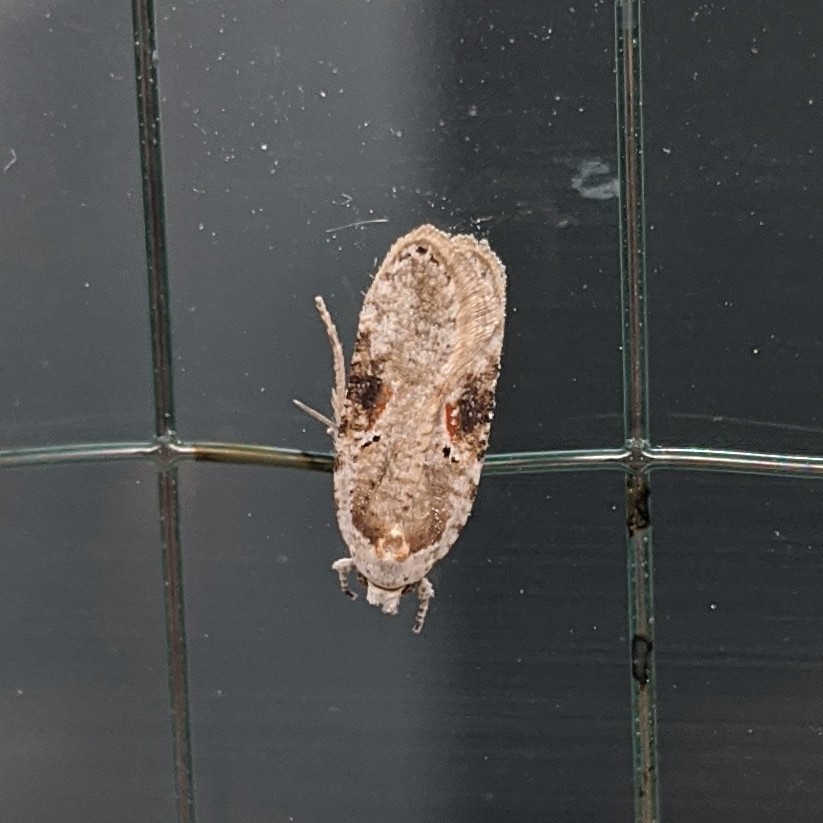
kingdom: Animalia
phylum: Arthropoda
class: Insecta
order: Lepidoptera
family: Depressariidae
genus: Agonopterix
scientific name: Agonopterix alstroemeriana
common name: Moth
